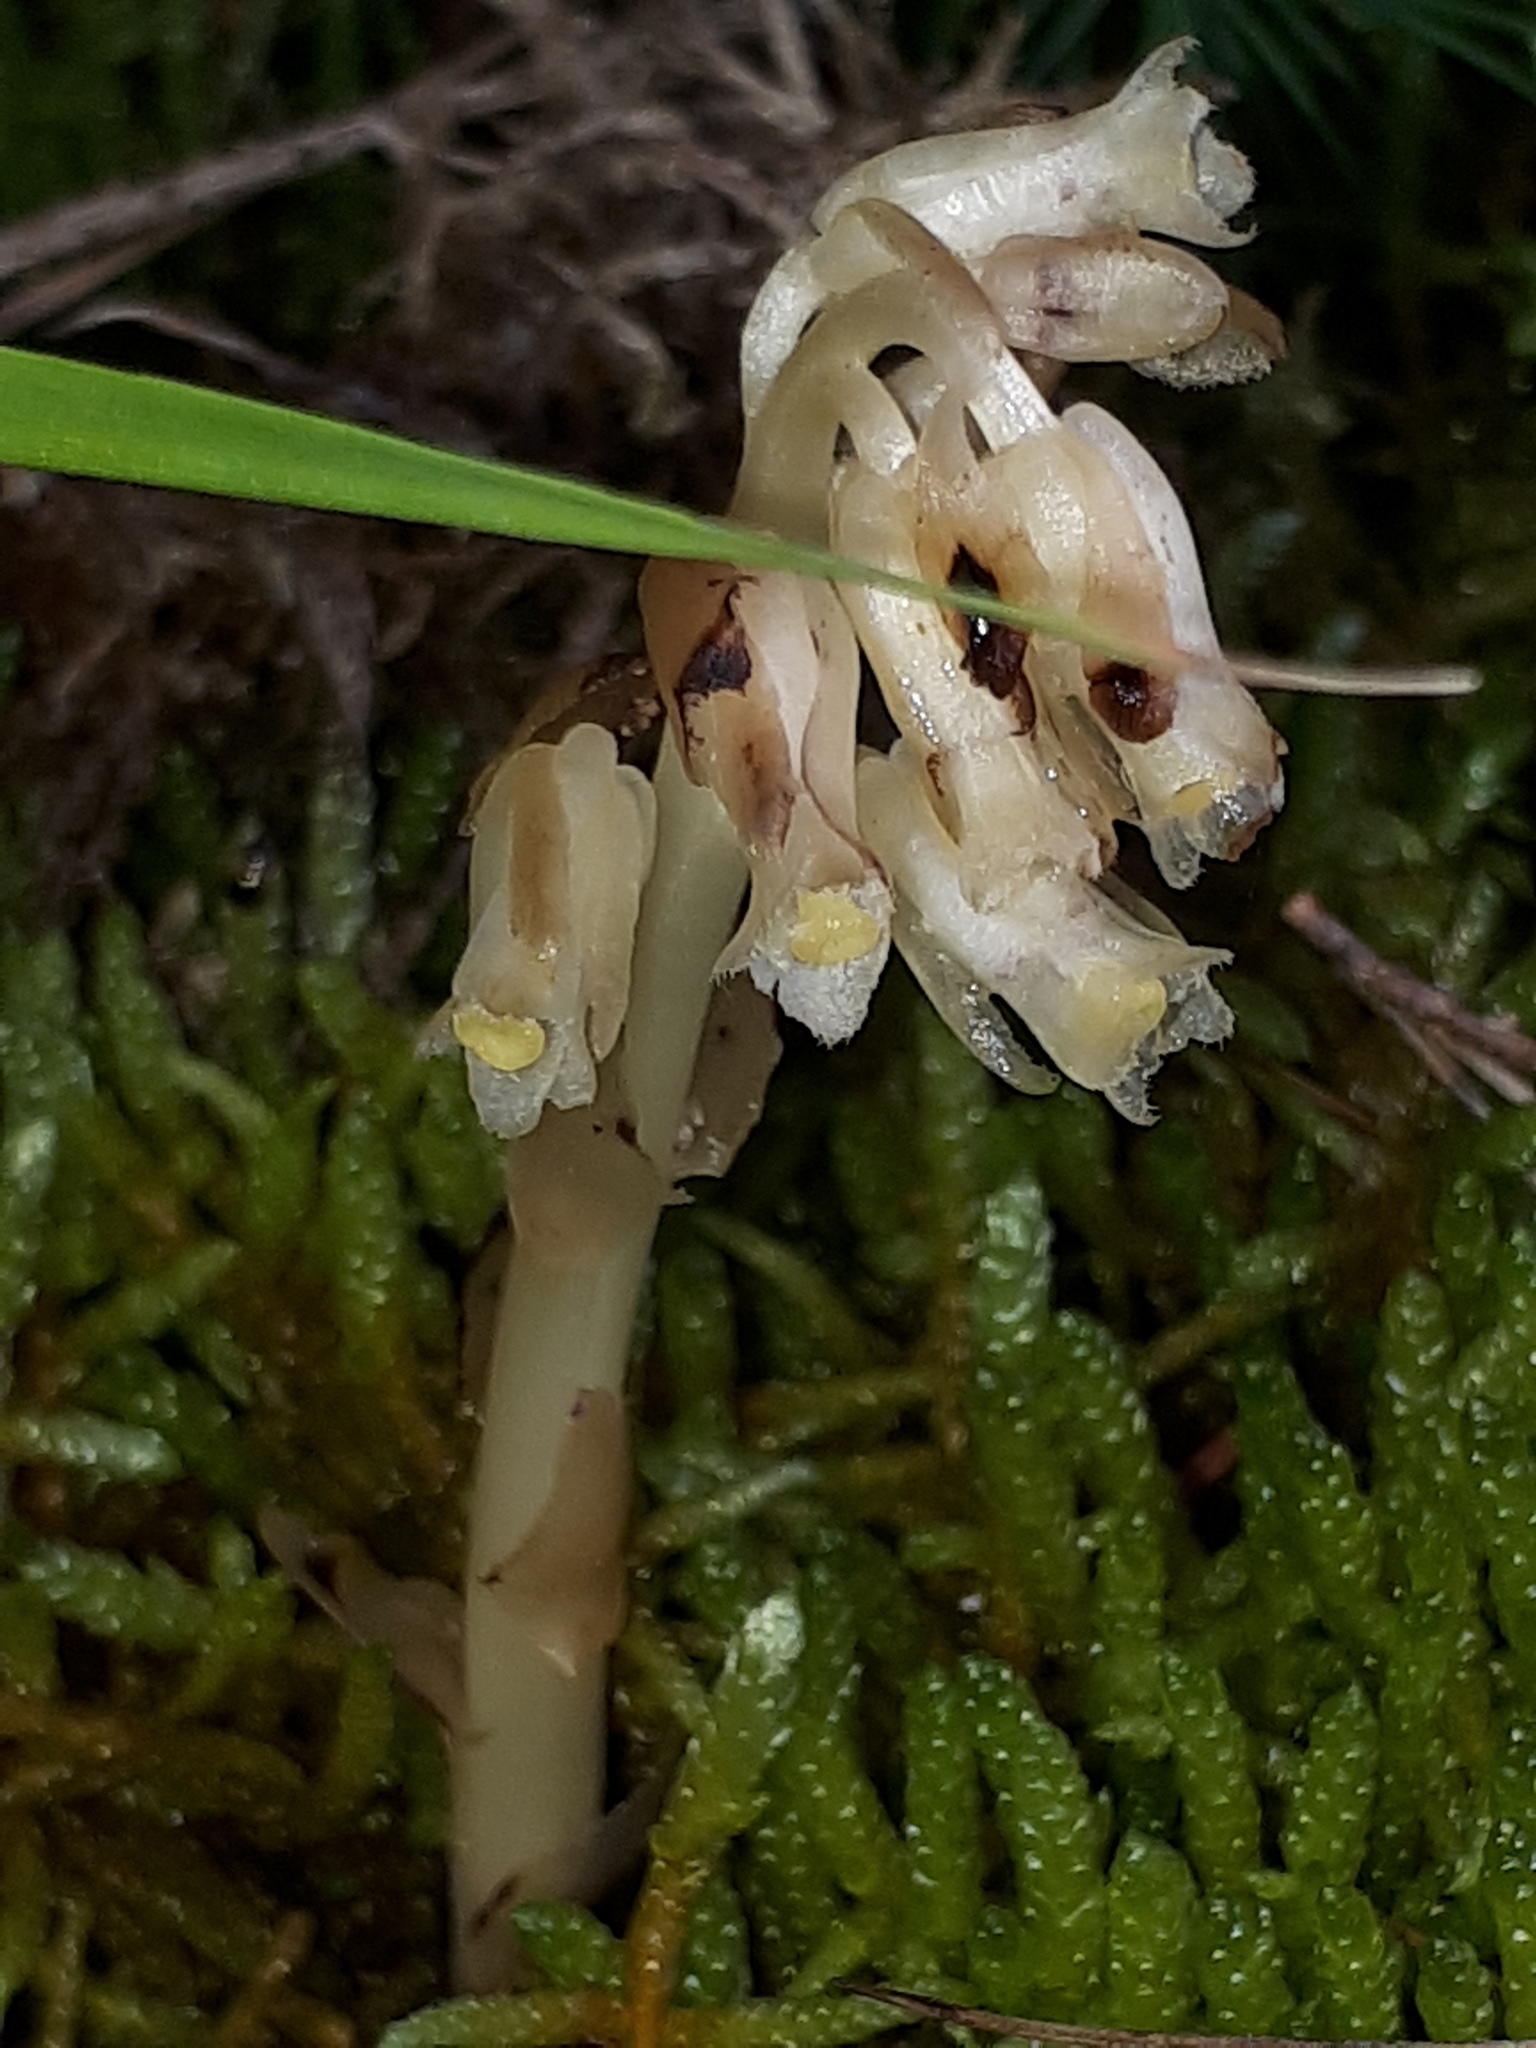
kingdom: Plantae
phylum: Tracheophyta
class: Magnoliopsida
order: Ericales
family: Ericaceae
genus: Hypopitys
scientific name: Hypopitys monotropa
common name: Yellow bird's-nest
